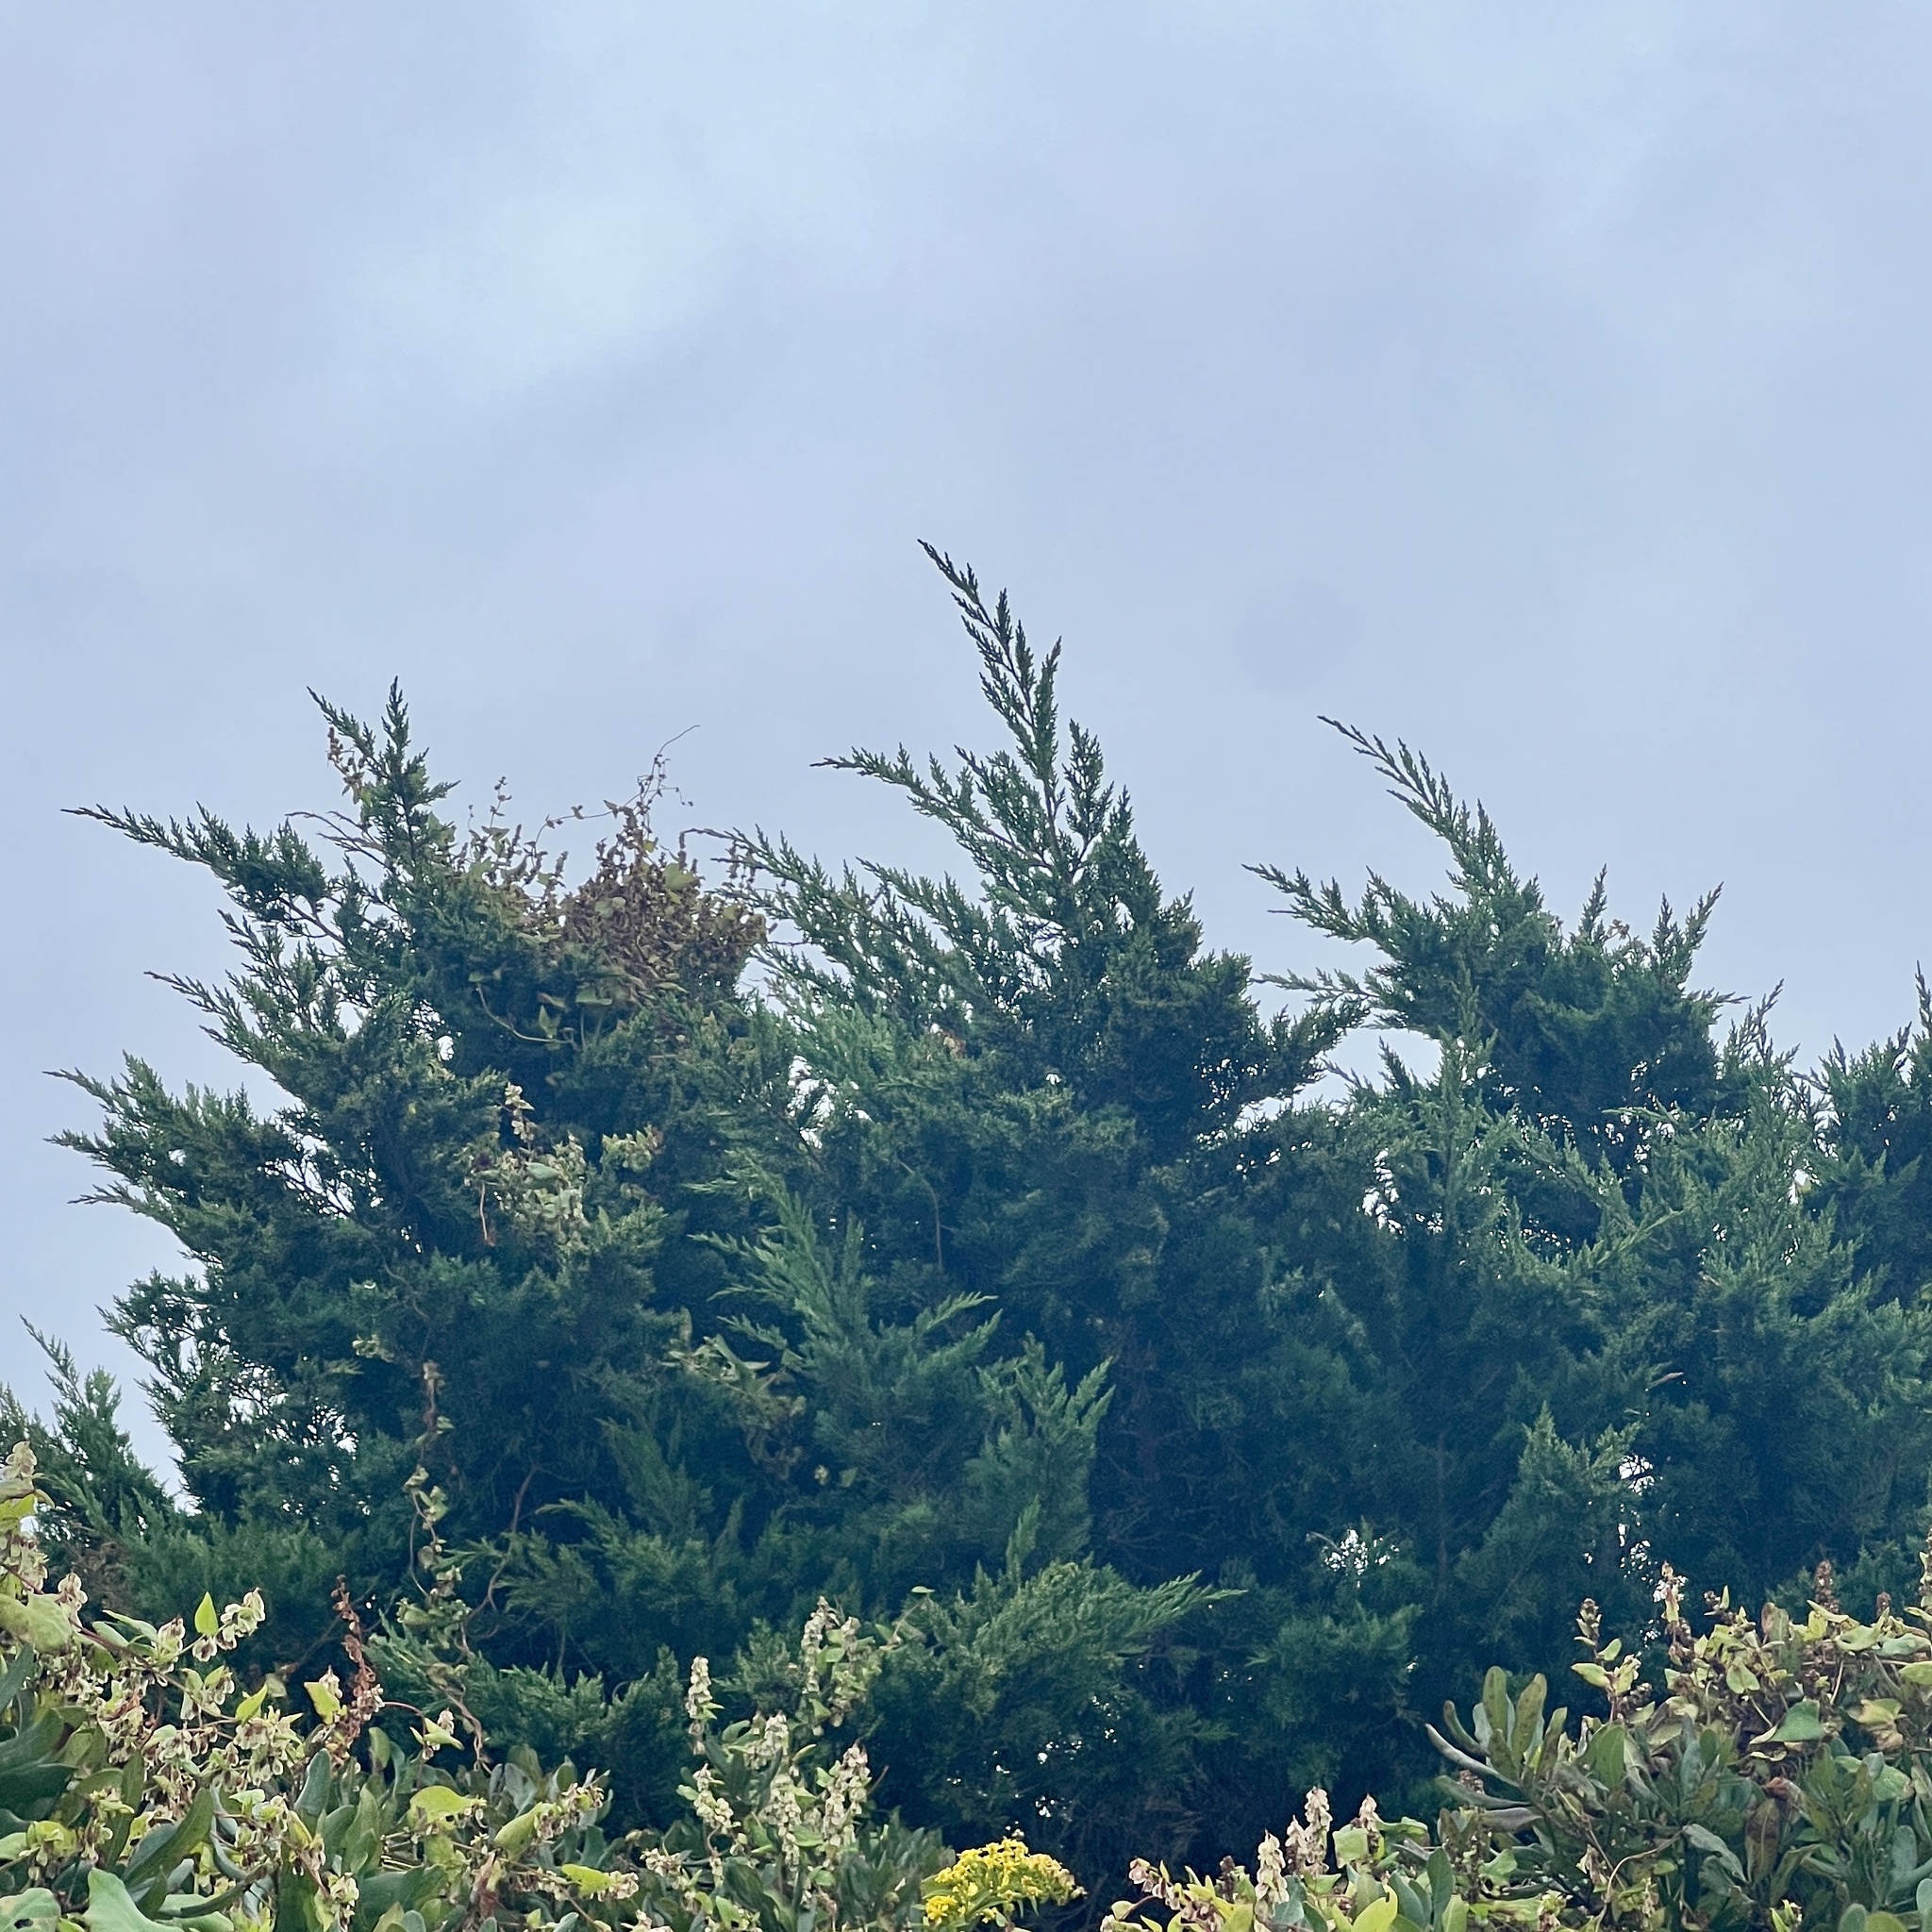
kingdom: Plantae
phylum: Tracheophyta
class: Pinopsida
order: Pinales
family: Cupressaceae
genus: Juniperus
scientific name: Juniperus virginiana
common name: Red juniper
